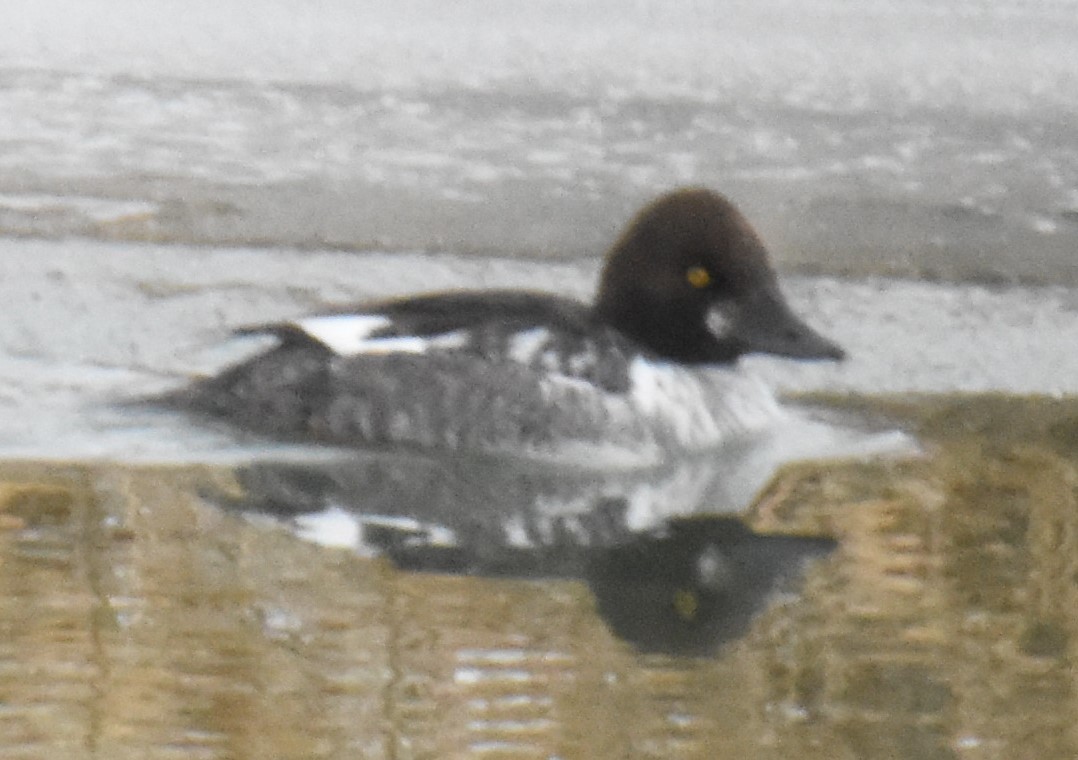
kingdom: Animalia
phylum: Chordata
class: Aves
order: Anseriformes
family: Anatidae
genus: Bucephala
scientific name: Bucephala clangula
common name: Common goldeneye
